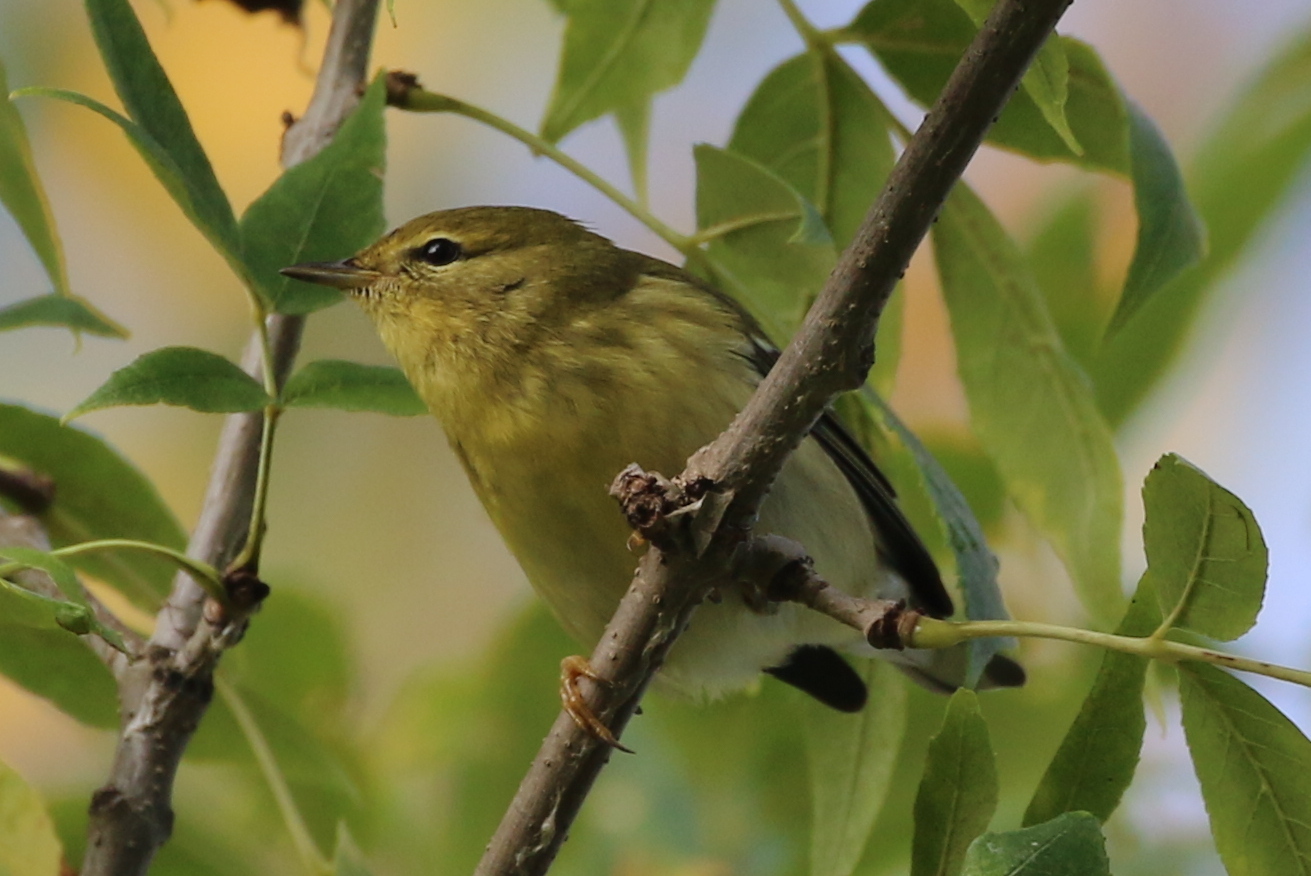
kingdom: Animalia
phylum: Chordata
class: Aves
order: Passeriformes
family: Parulidae
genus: Setophaga
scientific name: Setophaga striata
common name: Blackpoll warbler
